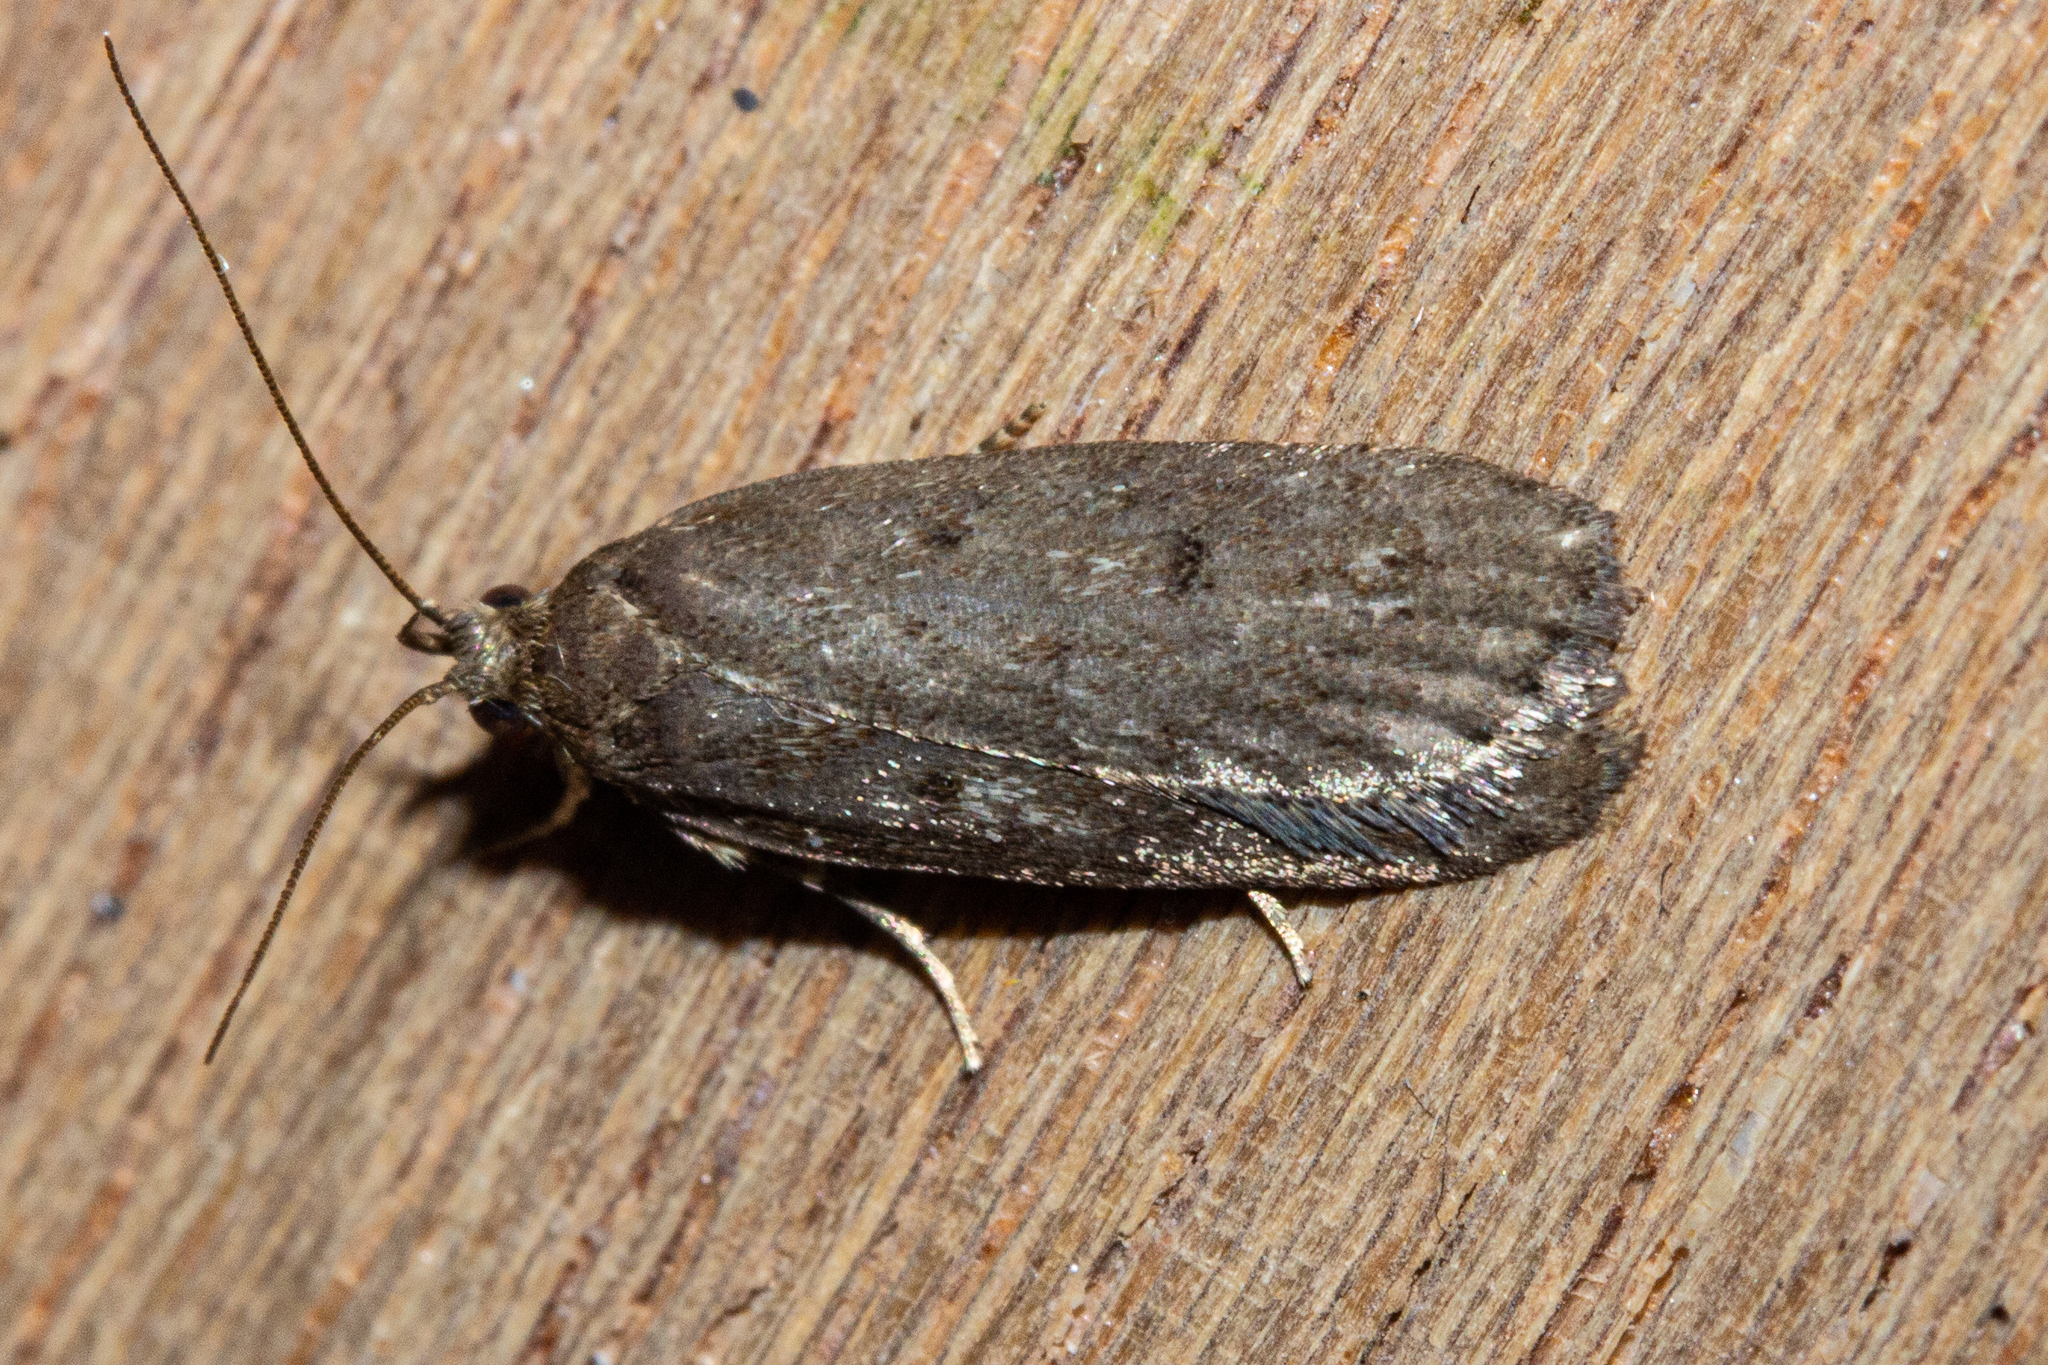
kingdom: Animalia
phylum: Arthropoda
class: Insecta
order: Lepidoptera
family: Depressariidae
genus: Phaeosaces
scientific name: Phaeosaces apocrypta
